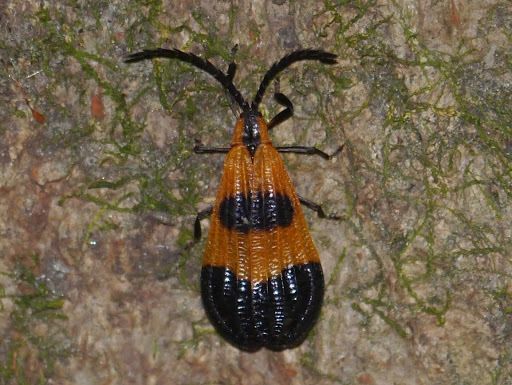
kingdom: Animalia
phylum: Arthropoda
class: Insecta
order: Coleoptera
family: Lycidae
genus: Calopteron
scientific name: Calopteron terminale
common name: End band net-winged beetle
